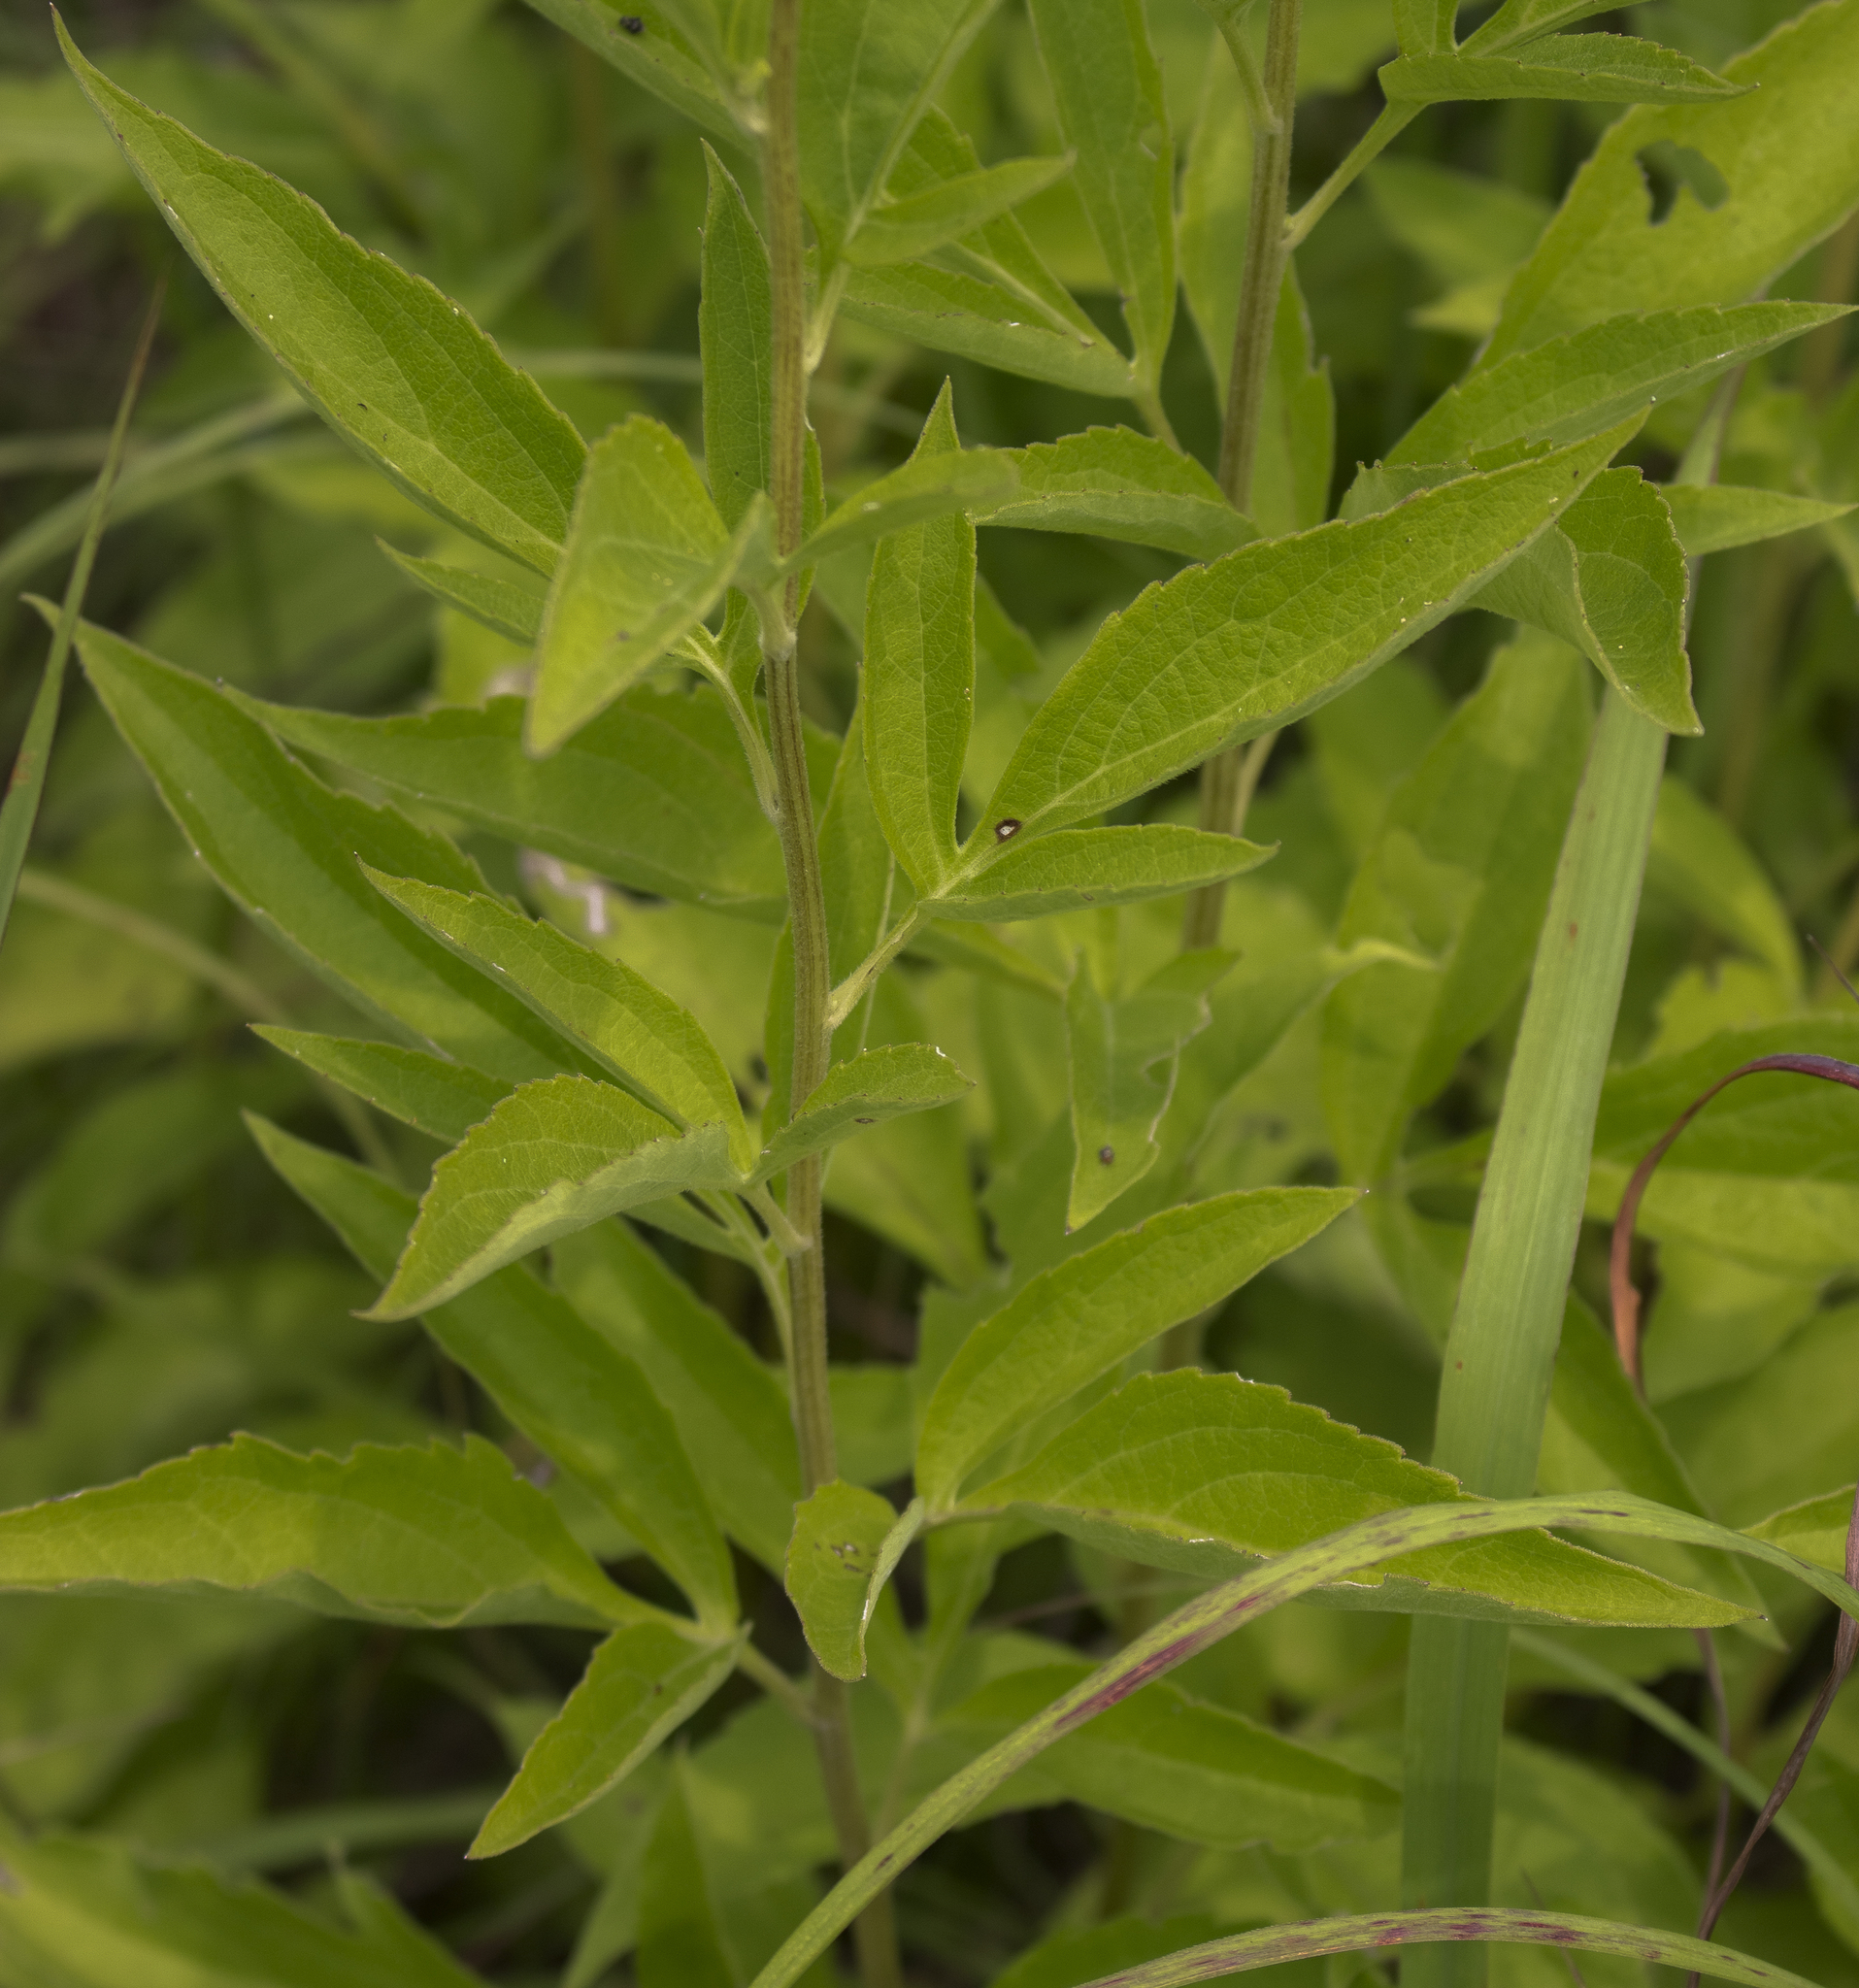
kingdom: Plantae
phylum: Tracheophyta
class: Magnoliopsida
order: Asterales
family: Asteraceae
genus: Rudbeckia
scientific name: Rudbeckia subtomentosa
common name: Sweet coneflower
